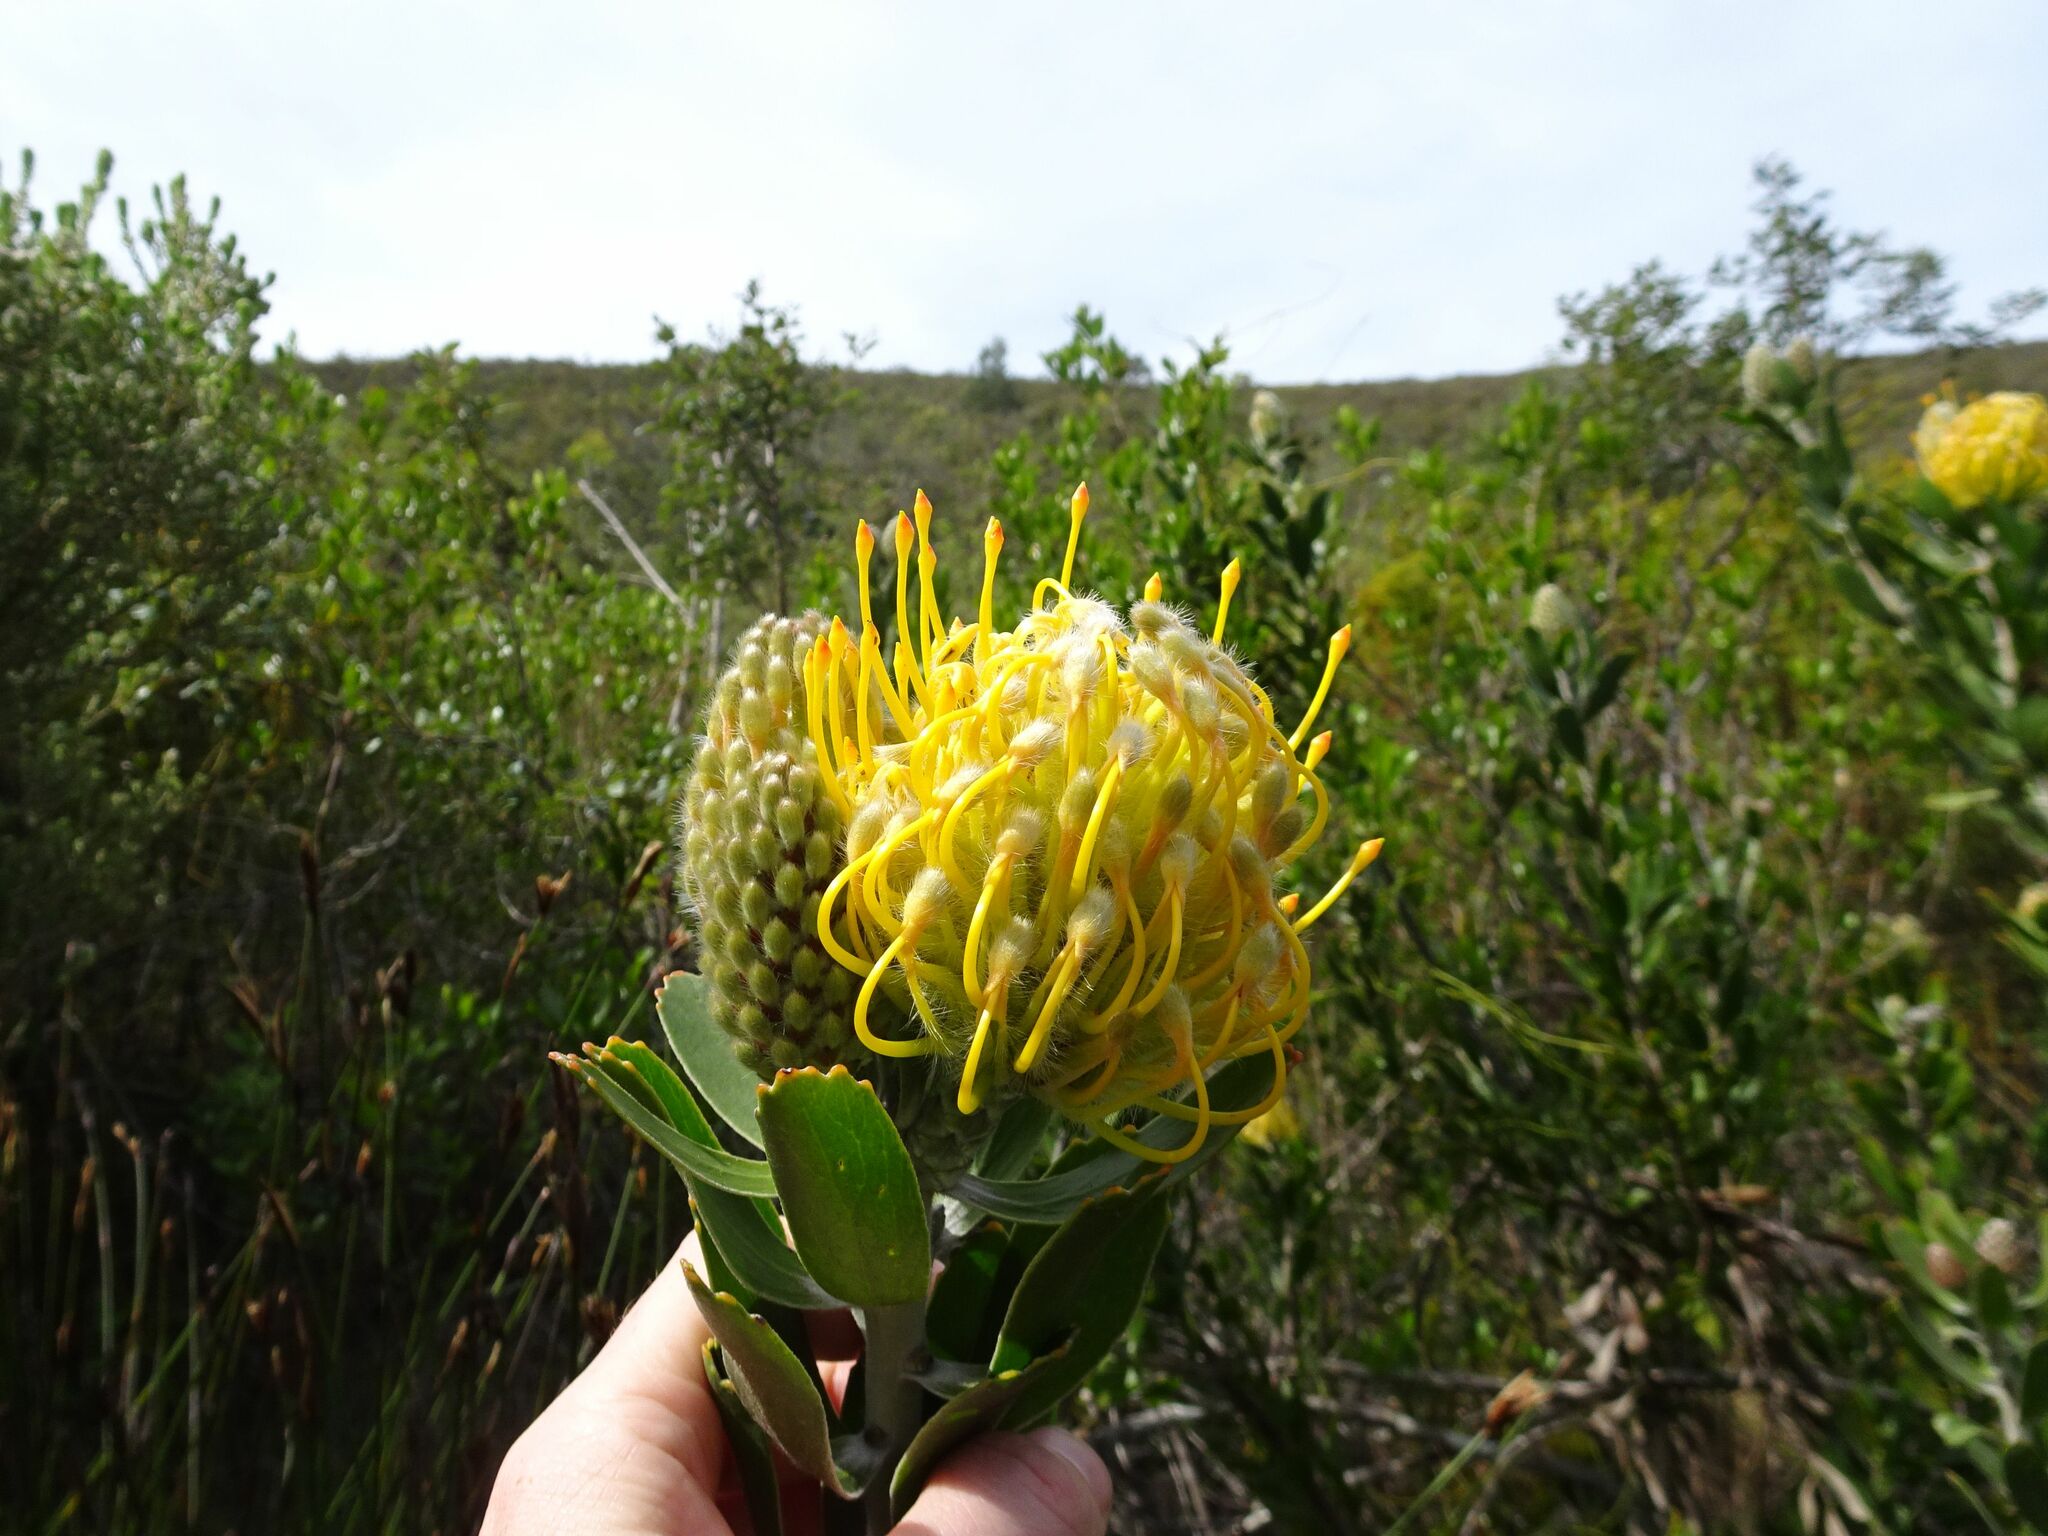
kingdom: Plantae
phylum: Tracheophyta
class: Magnoliopsida
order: Proteales
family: Proteaceae
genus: Leucospermum
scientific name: Leucospermum cuneiforme
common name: Common pincushion
